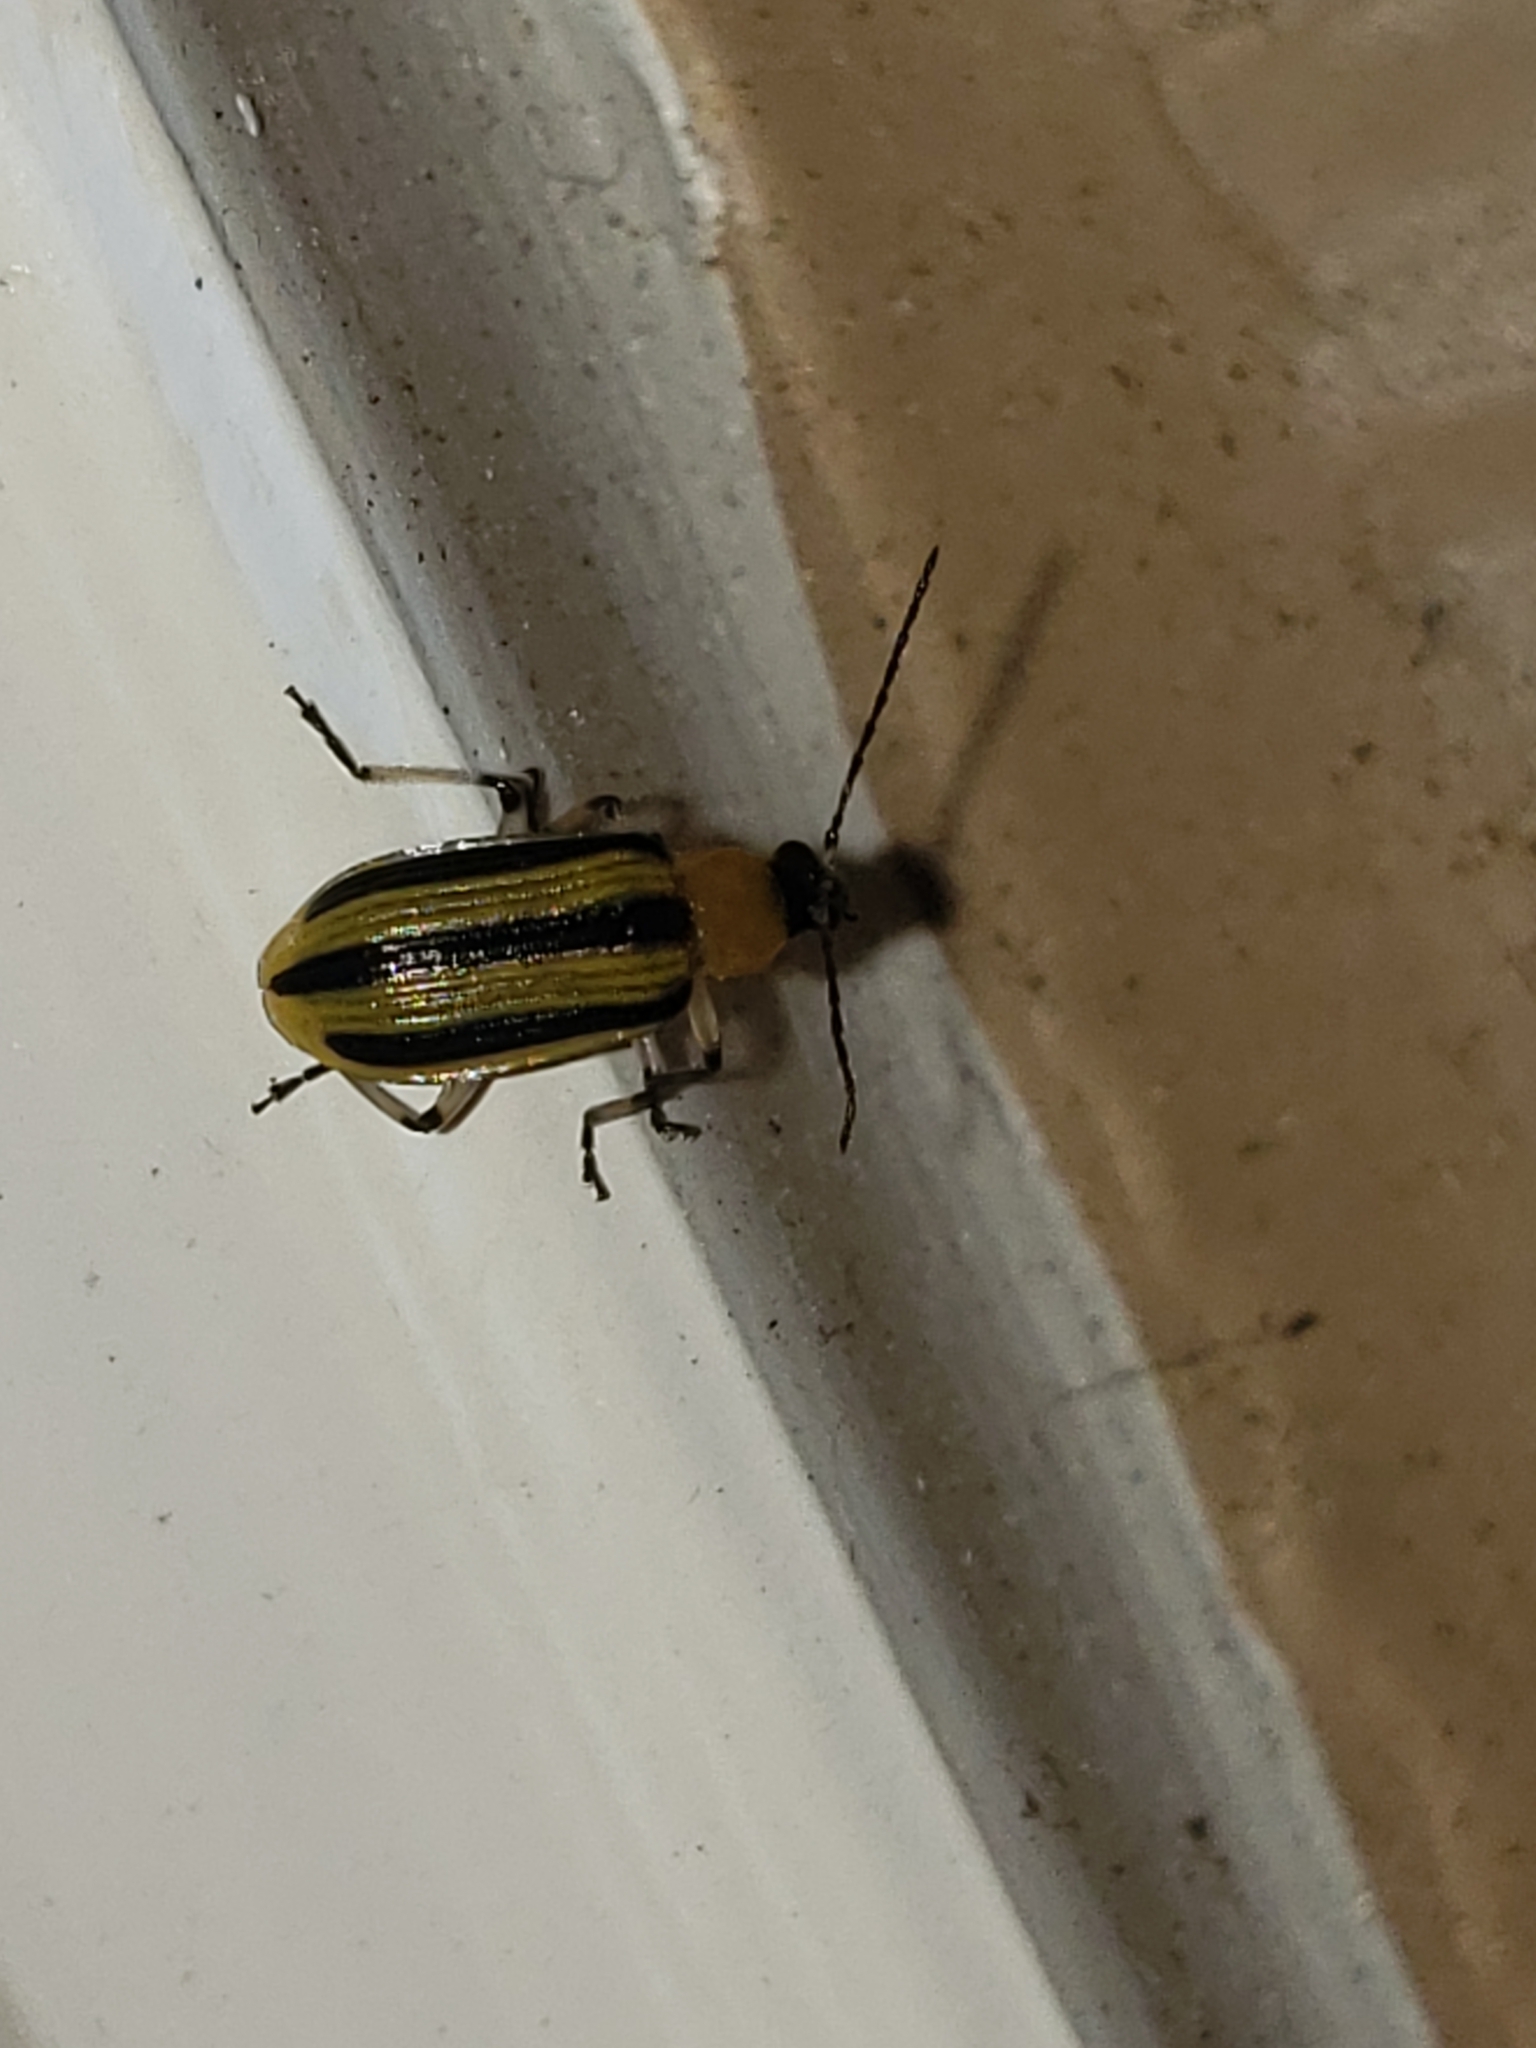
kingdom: Animalia
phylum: Arthropoda
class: Insecta
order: Coleoptera
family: Chrysomelidae
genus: Acalymma
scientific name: Acalymma vittatum
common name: Striped cucumber beetle
